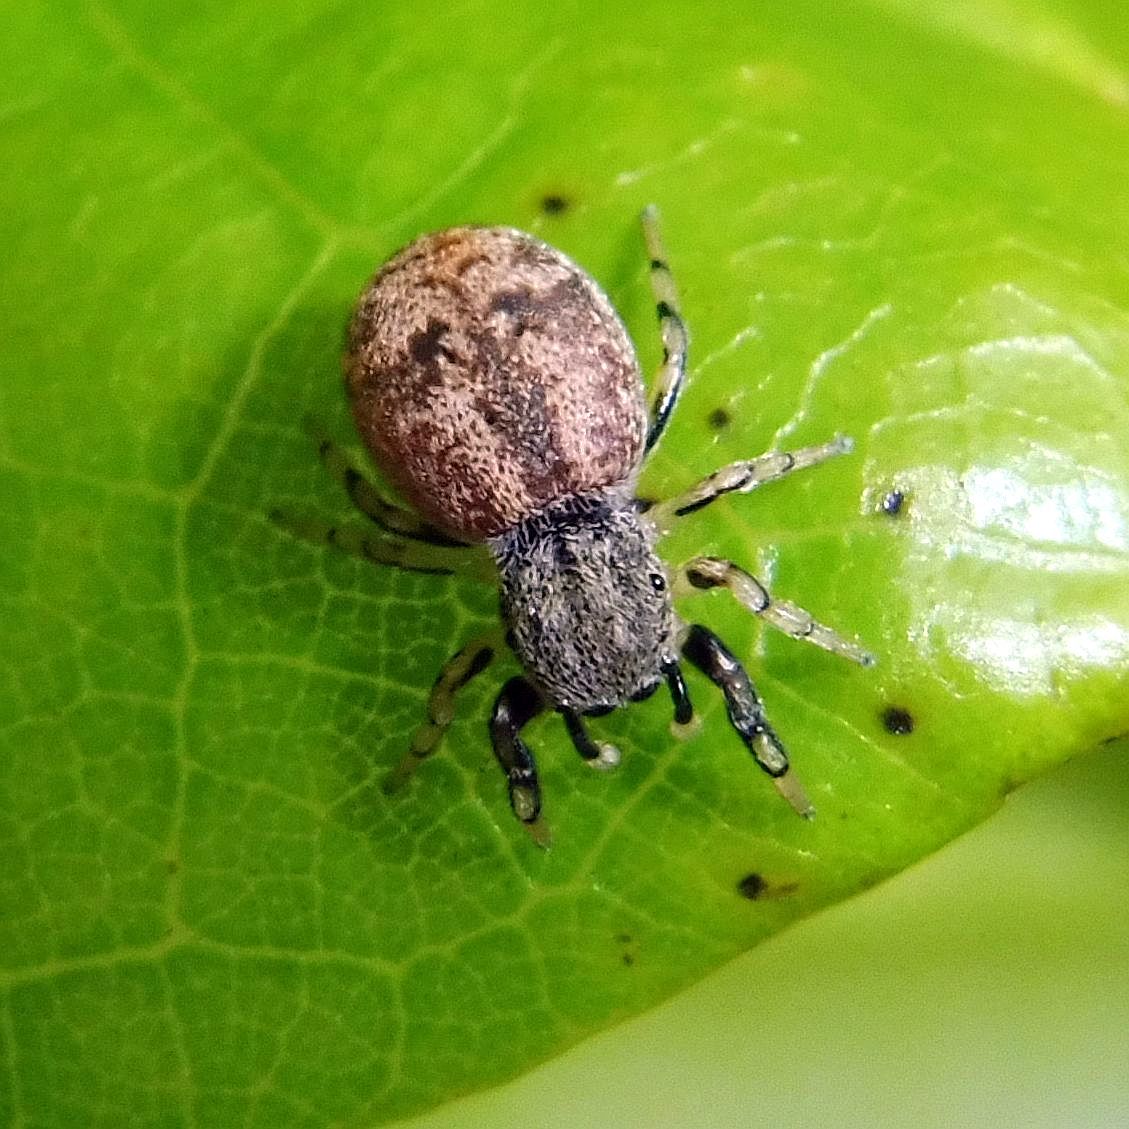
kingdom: Animalia
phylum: Arthropoda
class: Arachnida
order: Araneae
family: Salticidae
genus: Ballus
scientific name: Ballus chalybeius
